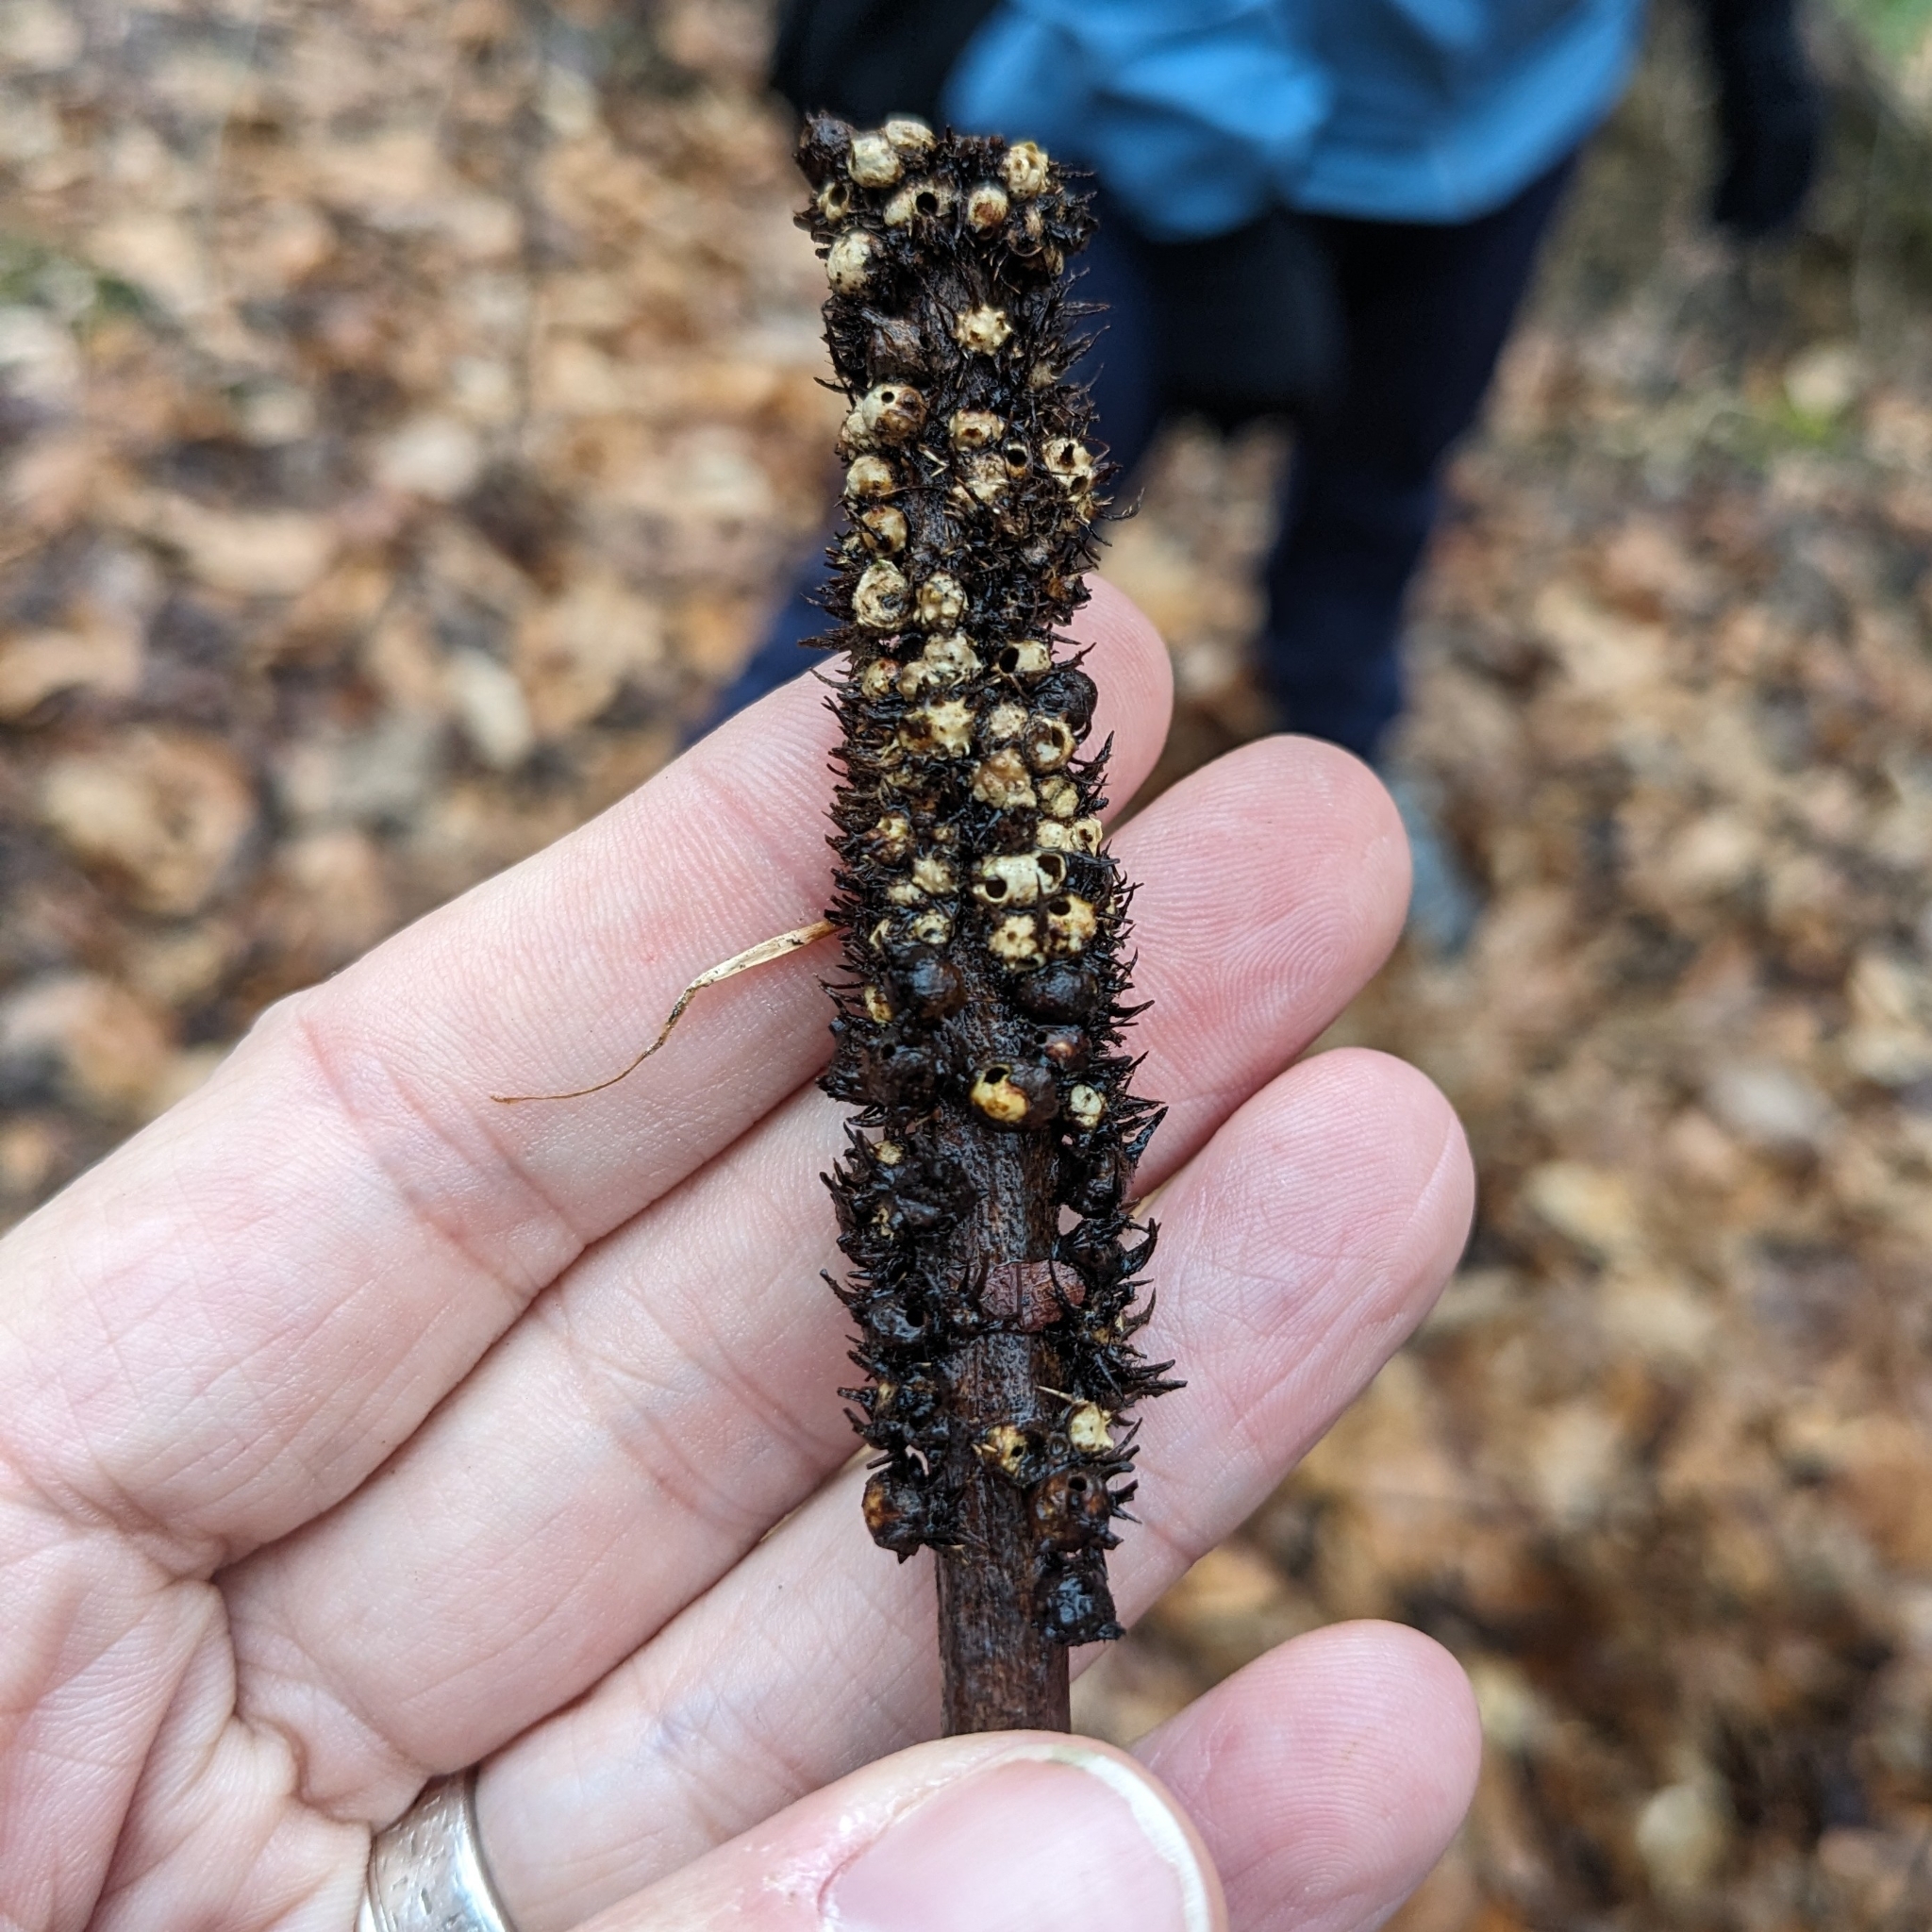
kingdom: Animalia
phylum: Arthropoda
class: Insecta
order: Hymenoptera
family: Cynipidae
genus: Diastrophus
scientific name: Diastrophus
